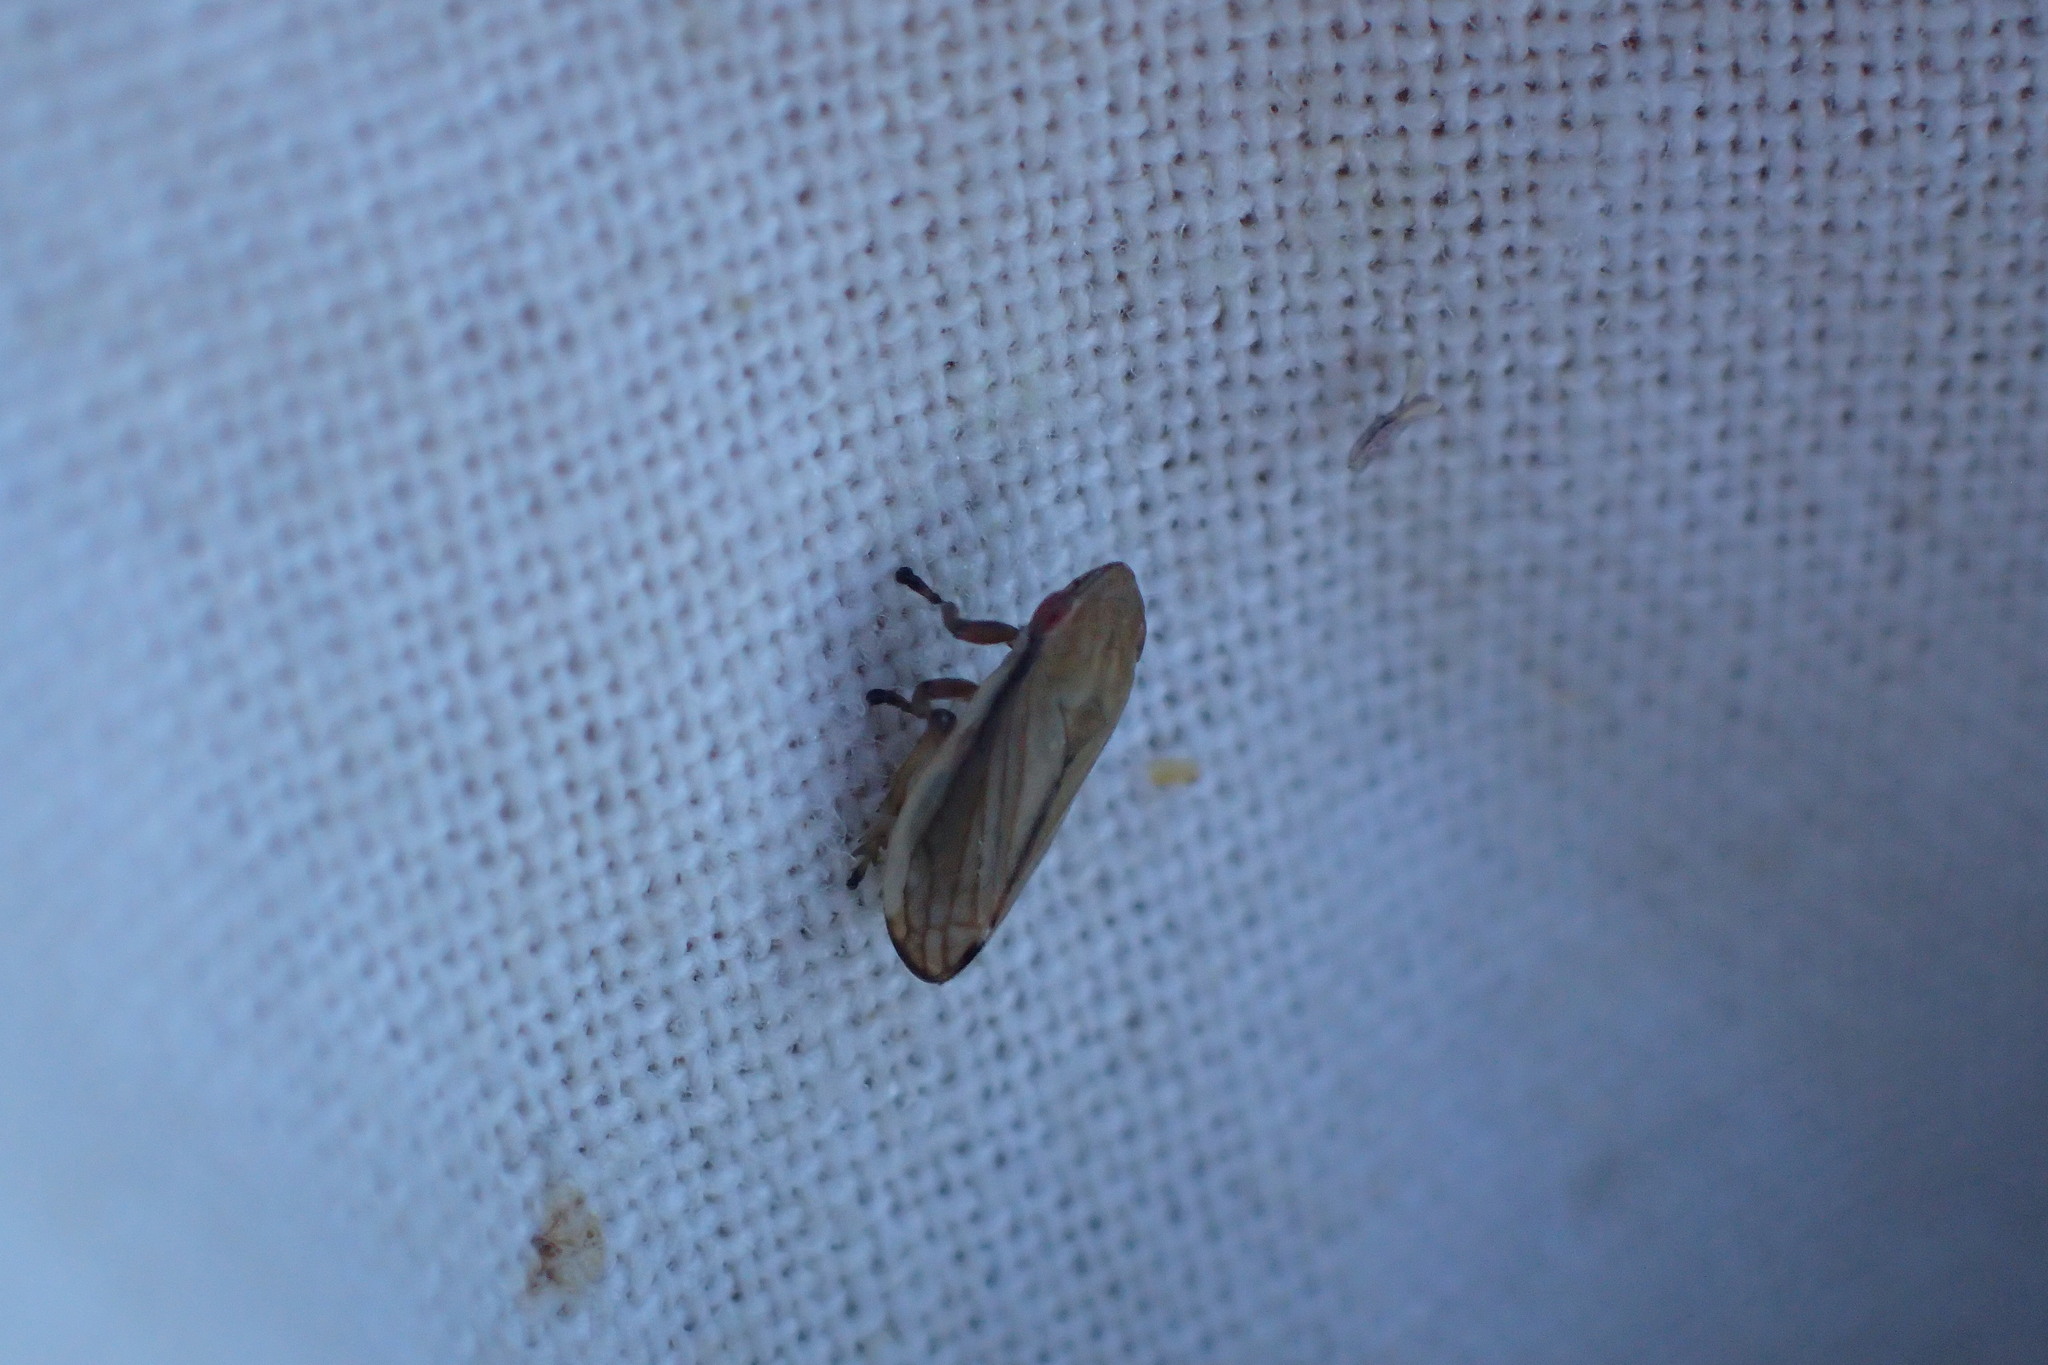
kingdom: Animalia
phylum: Arthropoda
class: Insecta
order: Hemiptera
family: Aphrophoridae
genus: Neophilaenus
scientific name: Neophilaenus lineatus
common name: Spittlebug
